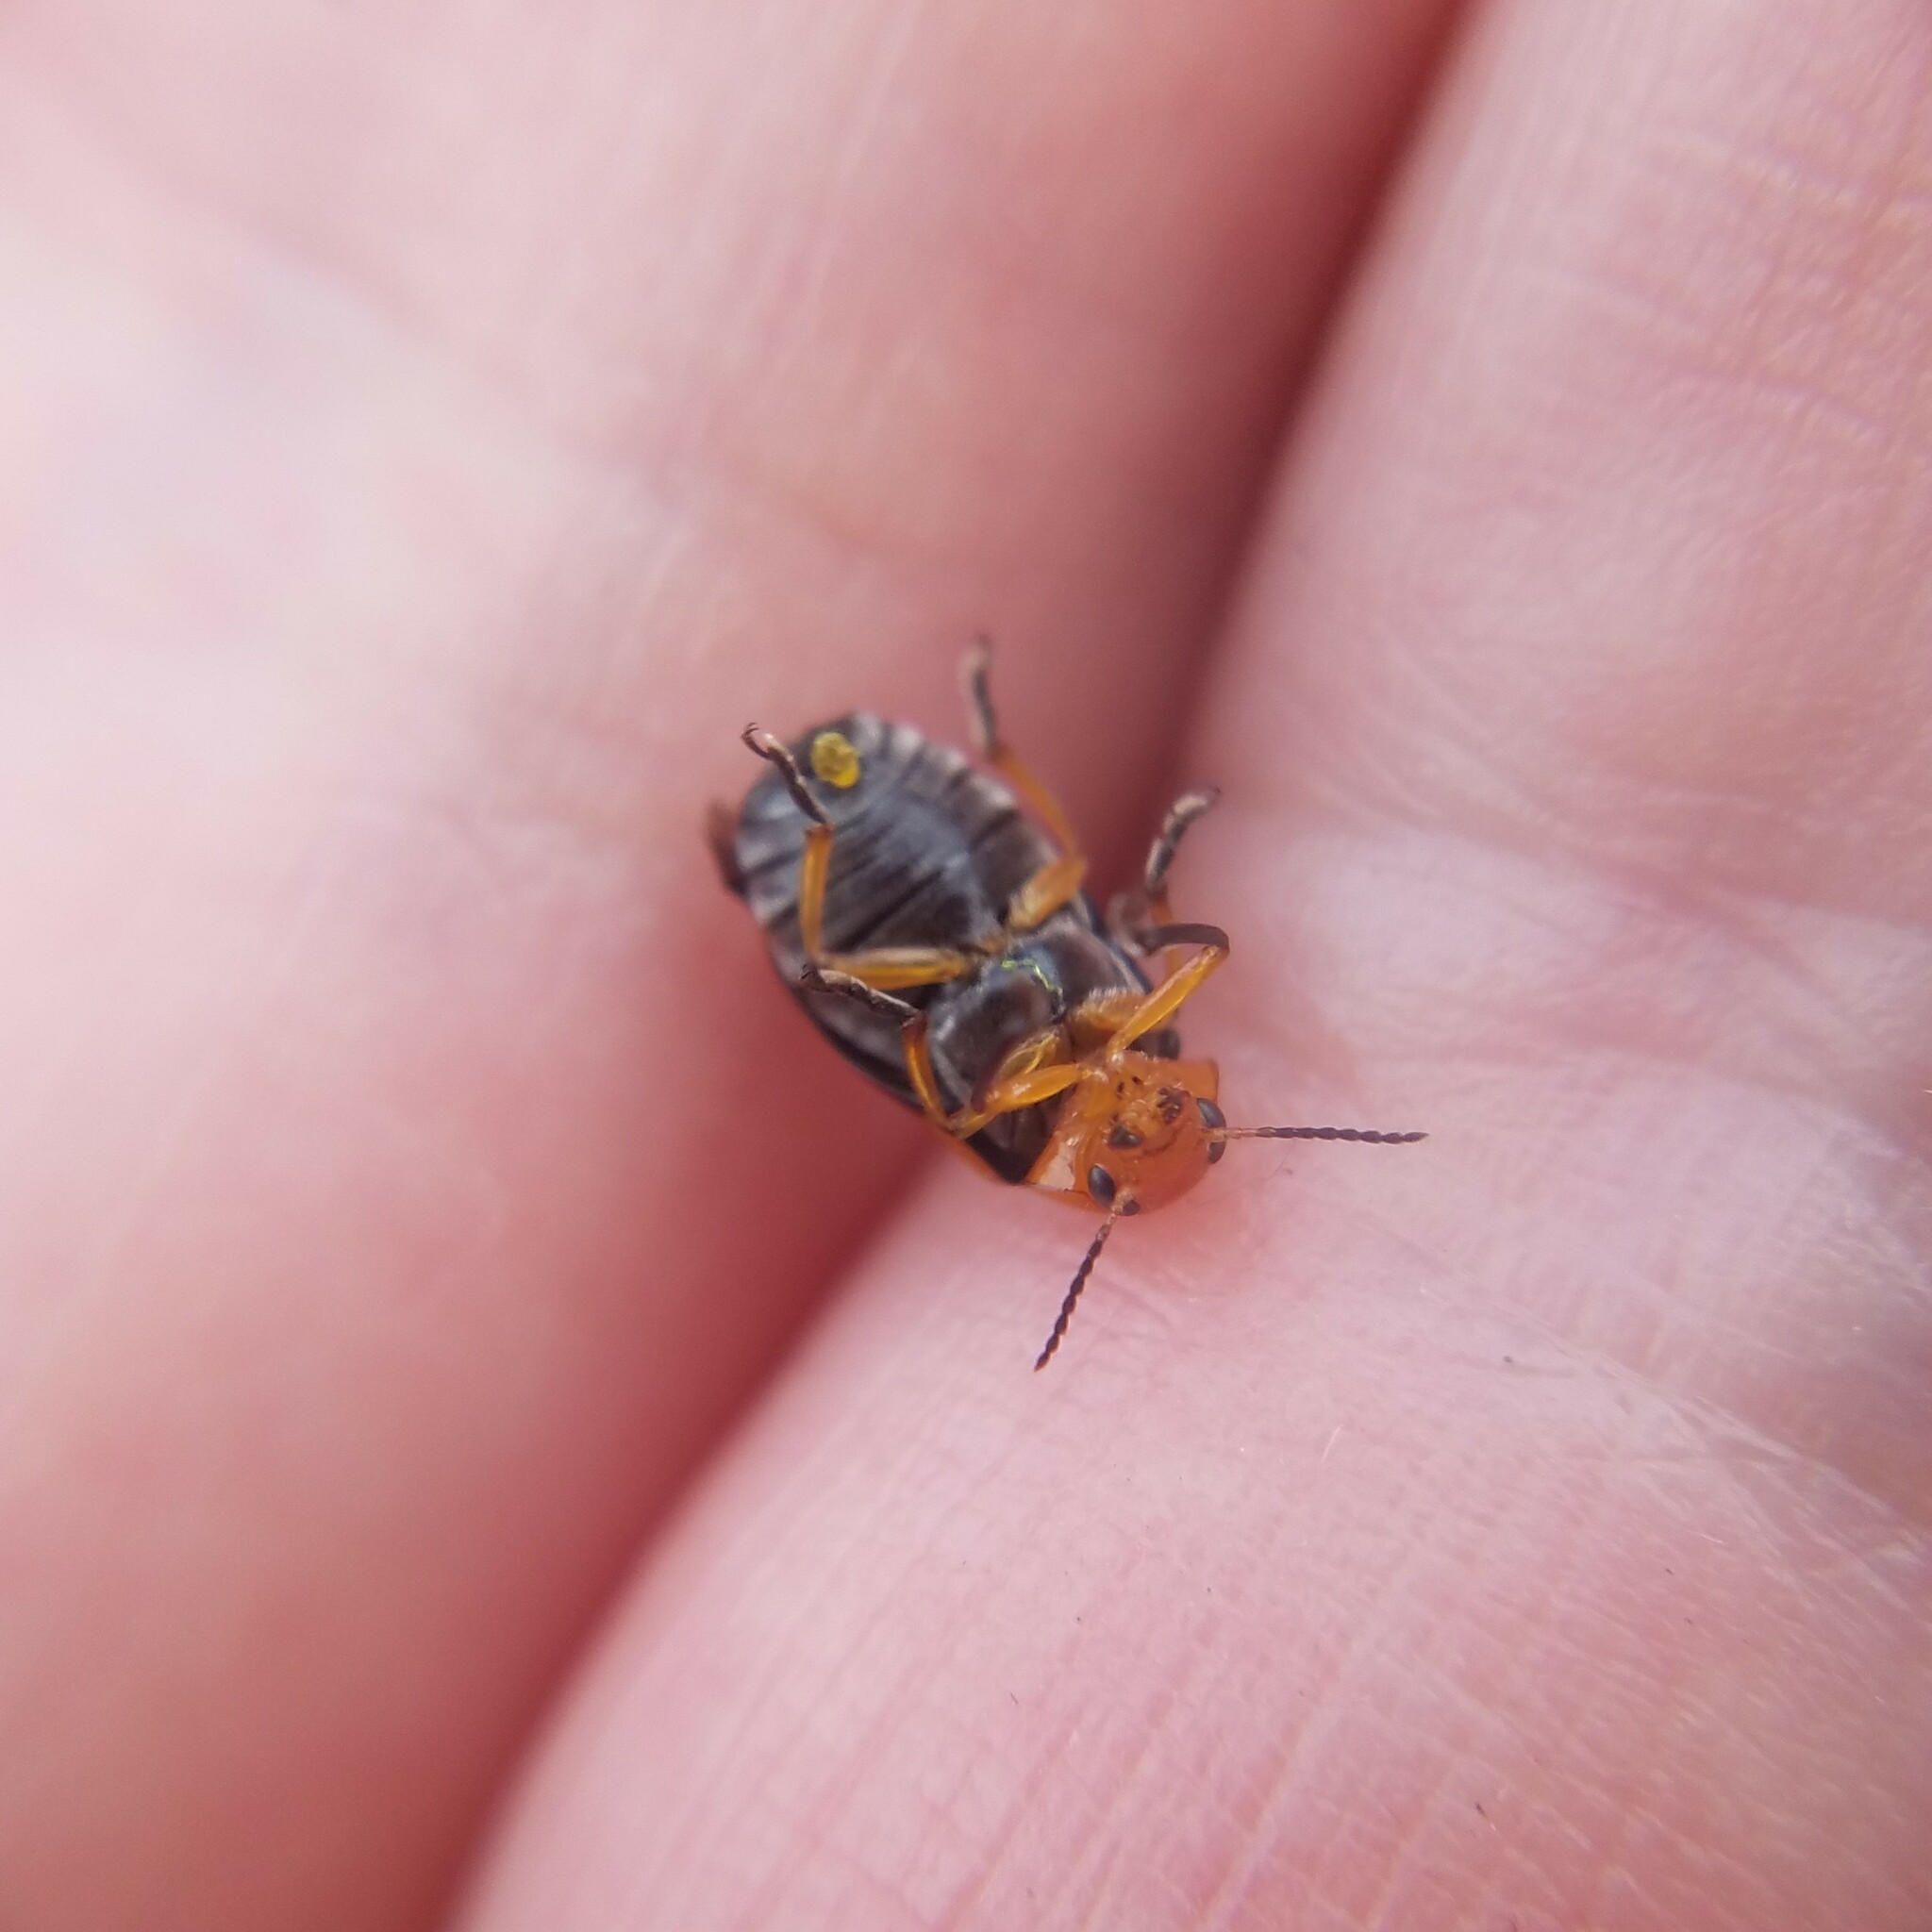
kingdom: Animalia
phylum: Arthropoda
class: Insecta
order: Coleoptera
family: Chrysomelidae
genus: Anomoea
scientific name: Anomoea laticlavia
